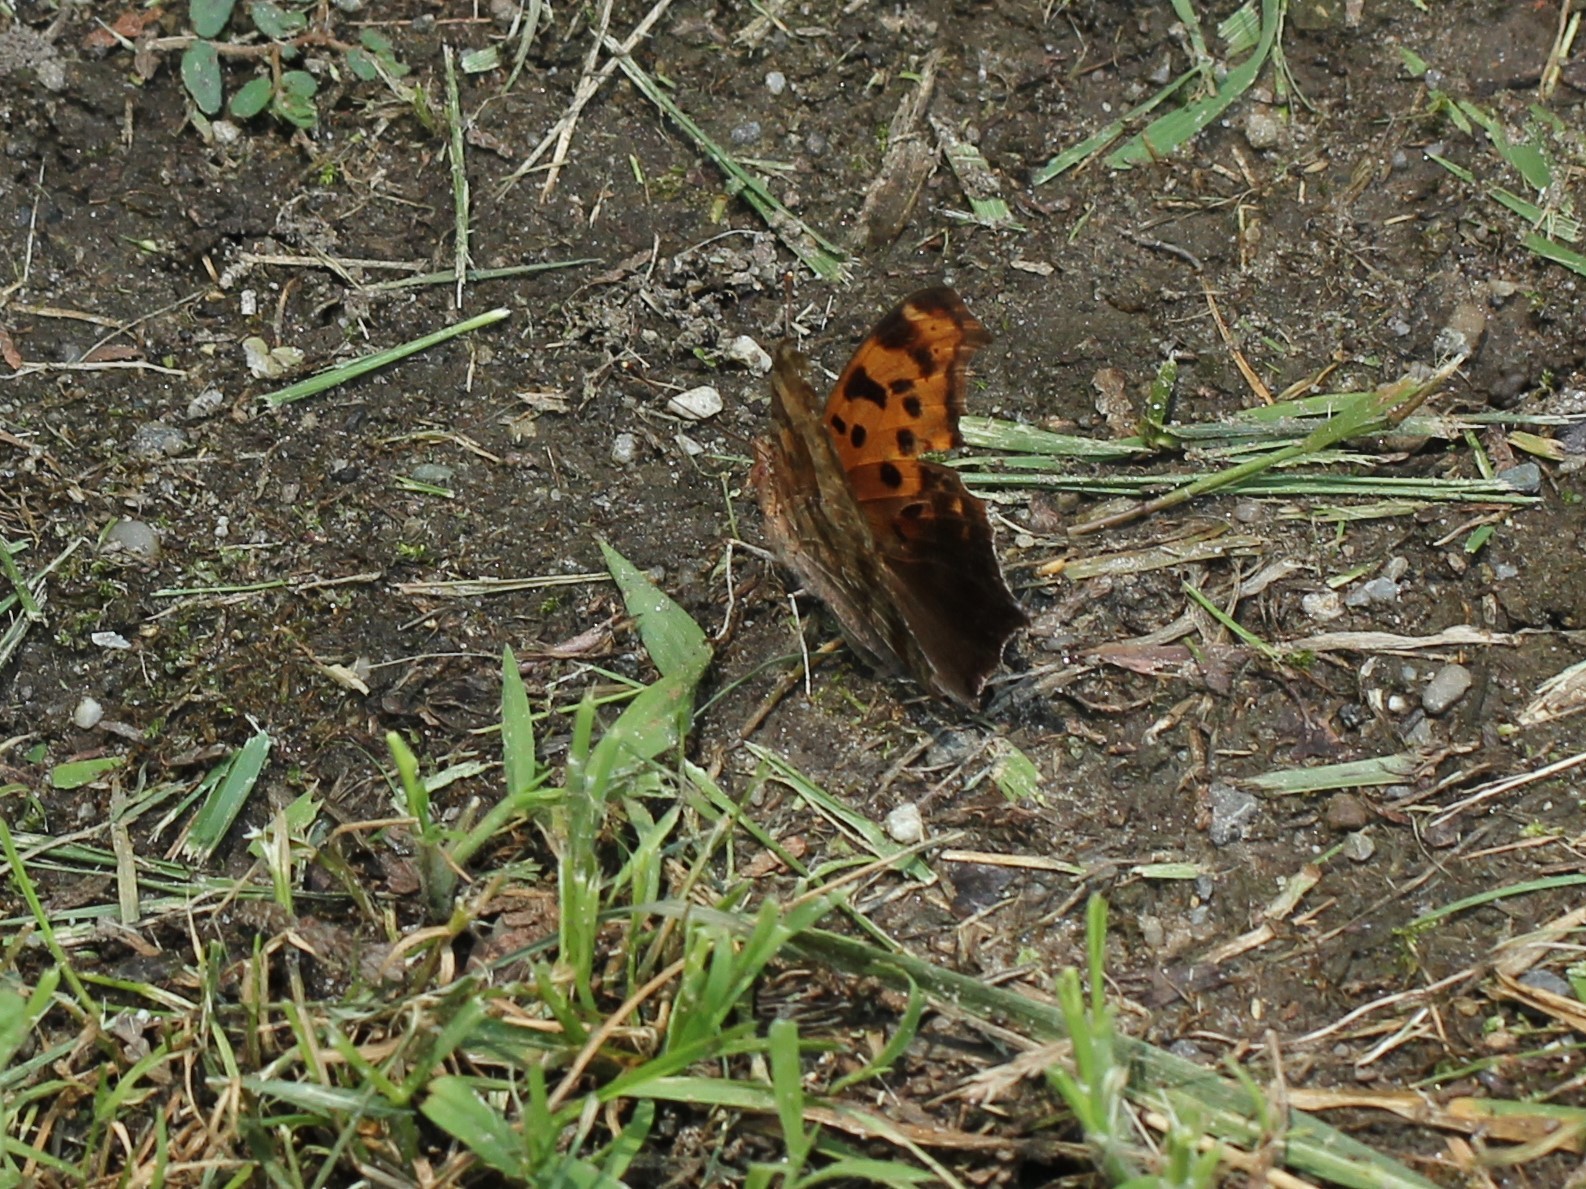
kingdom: Animalia
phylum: Arthropoda
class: Insecta
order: Lepidoptera
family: Nymphalidae
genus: Polygonia
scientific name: Polygonia interrogationis
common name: Question mark
